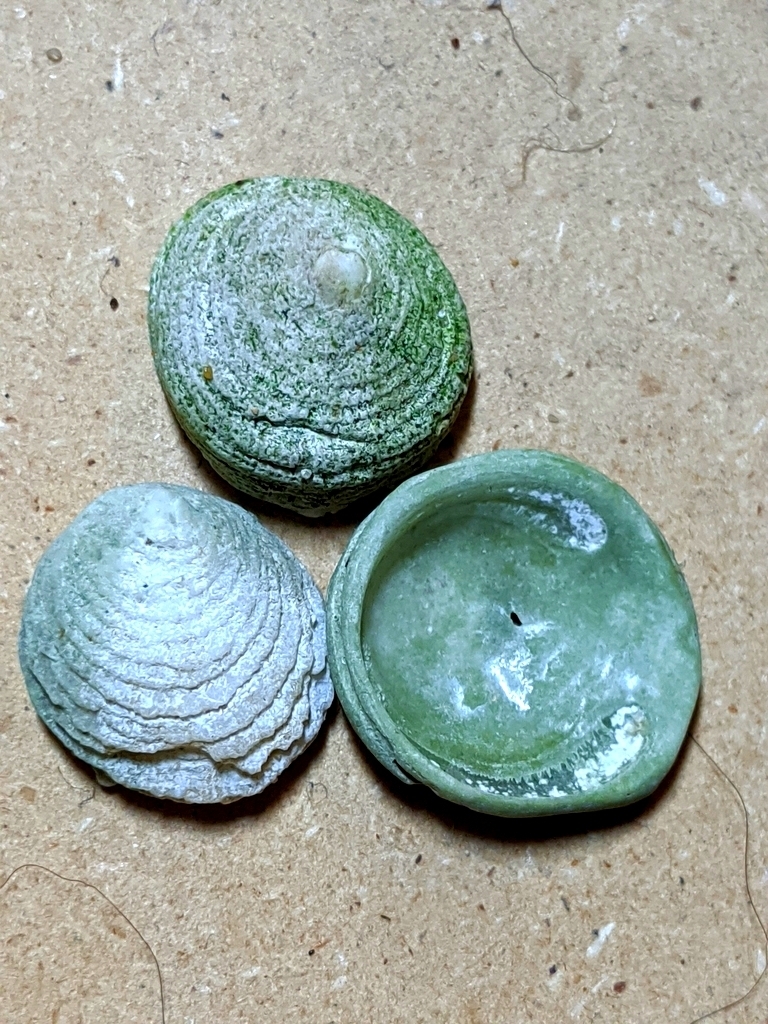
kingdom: Animalia
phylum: Mollusca
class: Gastropoda
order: Littorinimorpha
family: Hipponicidae
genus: Hipponix
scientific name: Hipponix cranioides
